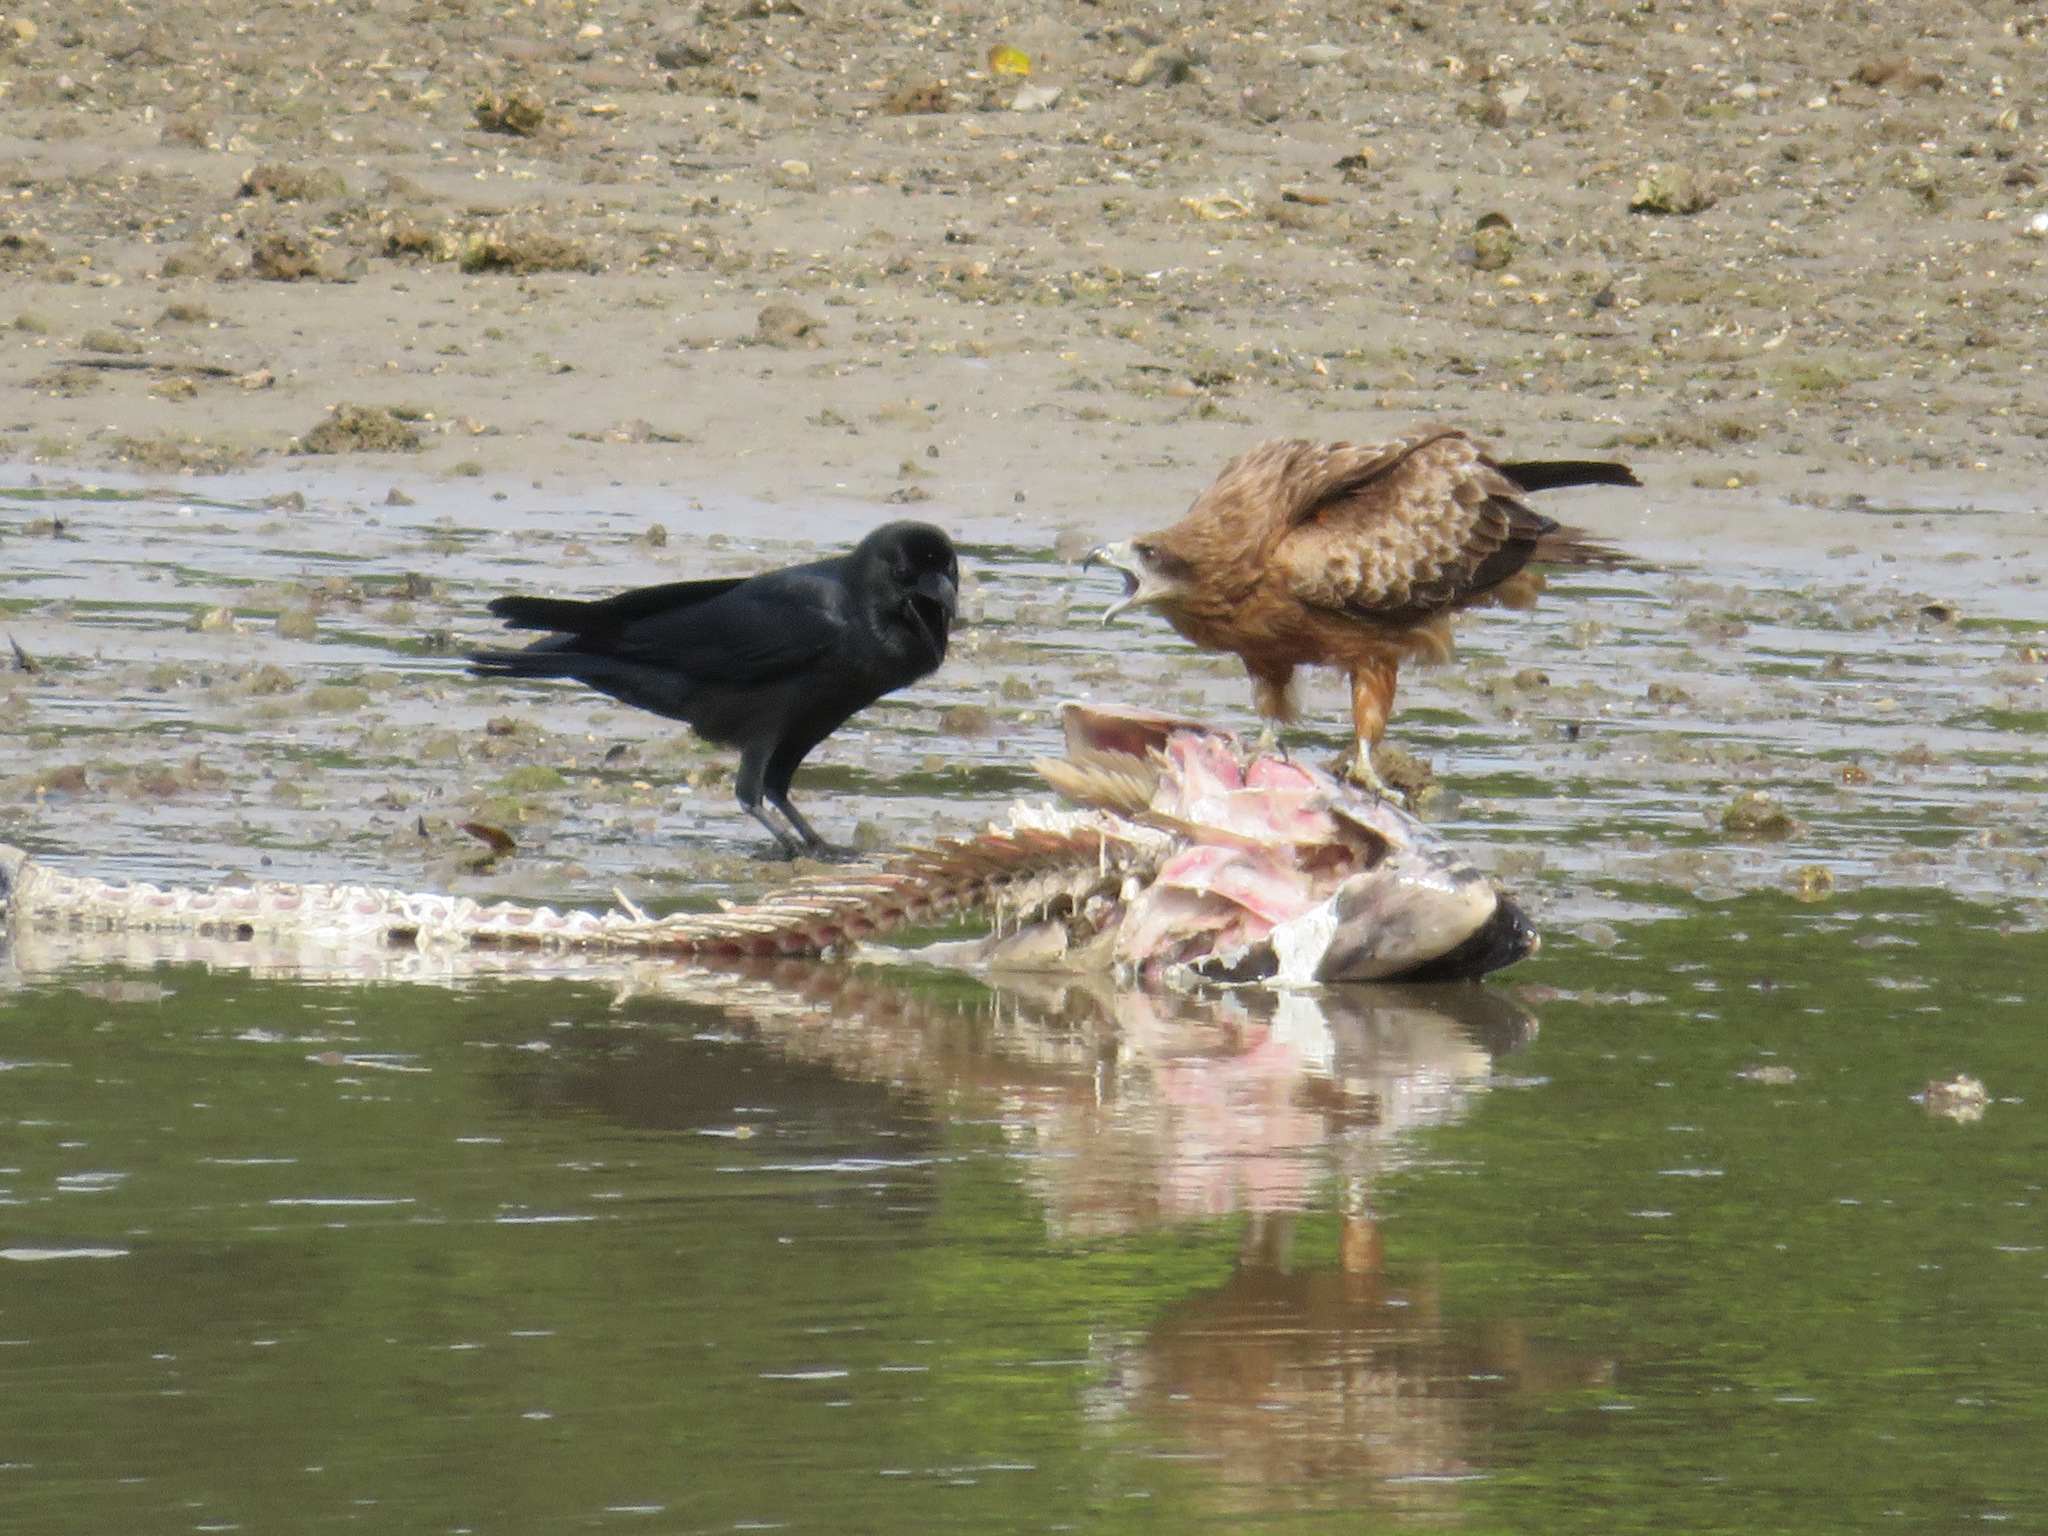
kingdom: Animalia
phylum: Chordata
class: Aves
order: Accipitriformes
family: Accipitridae
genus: Milvus
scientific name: Milvus migrans
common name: Black kite
